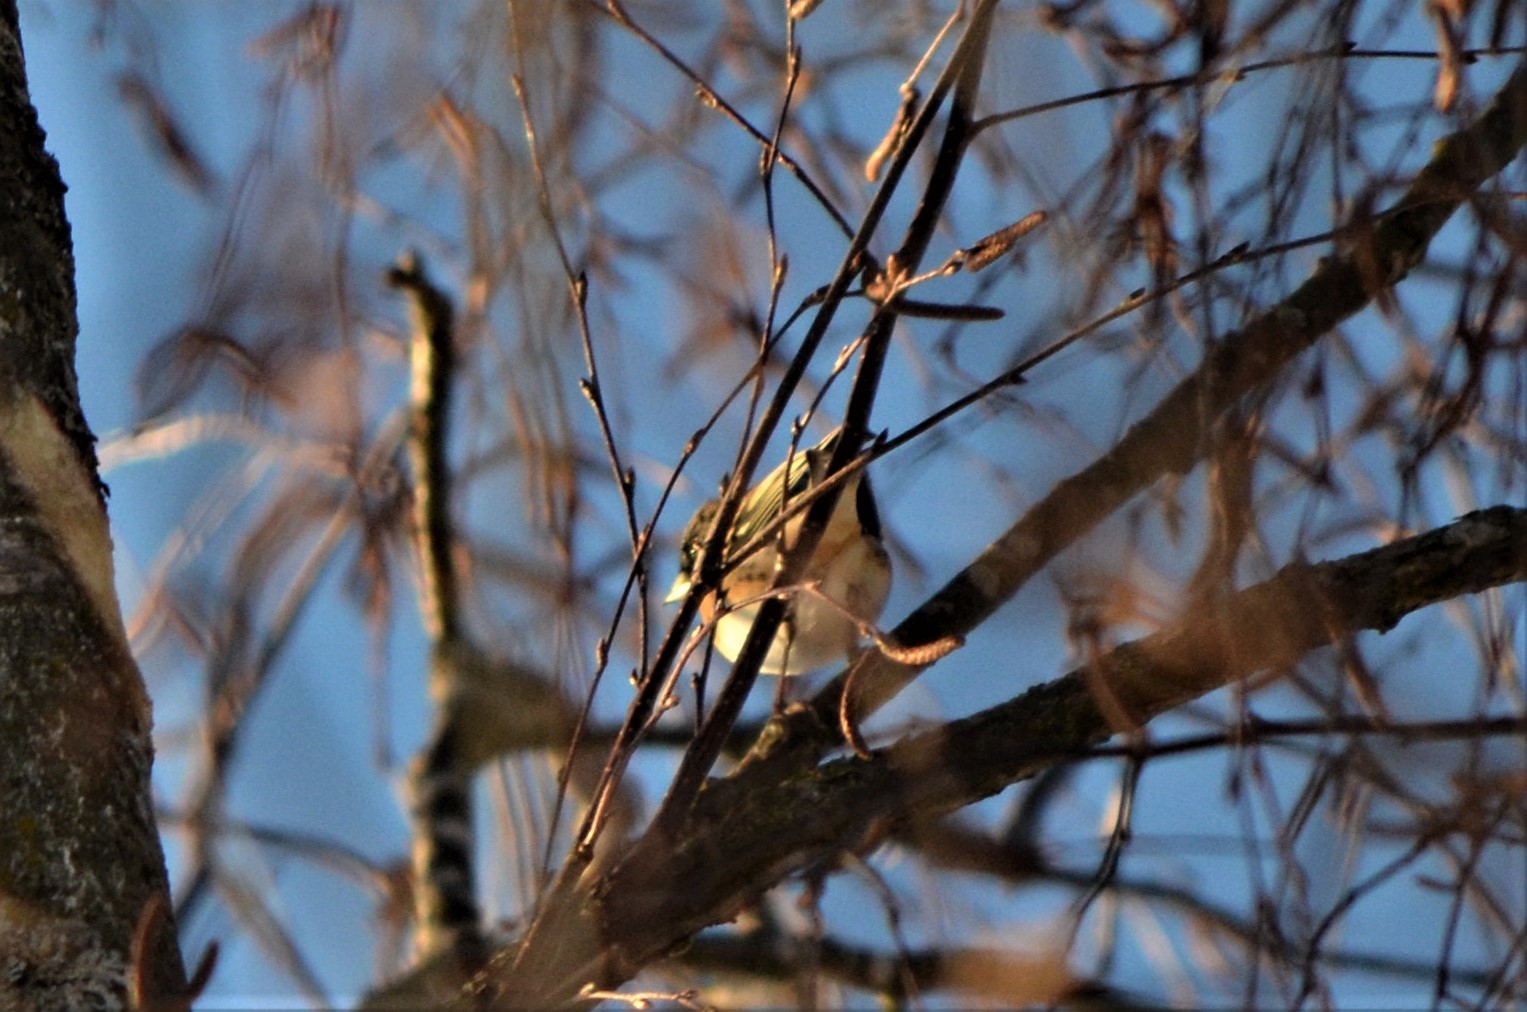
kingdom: Animalia
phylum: Chordata
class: Aves
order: Passeriformes
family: Fringillidae
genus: Fringilla
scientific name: Fringilla montifringilla
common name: Brambling
